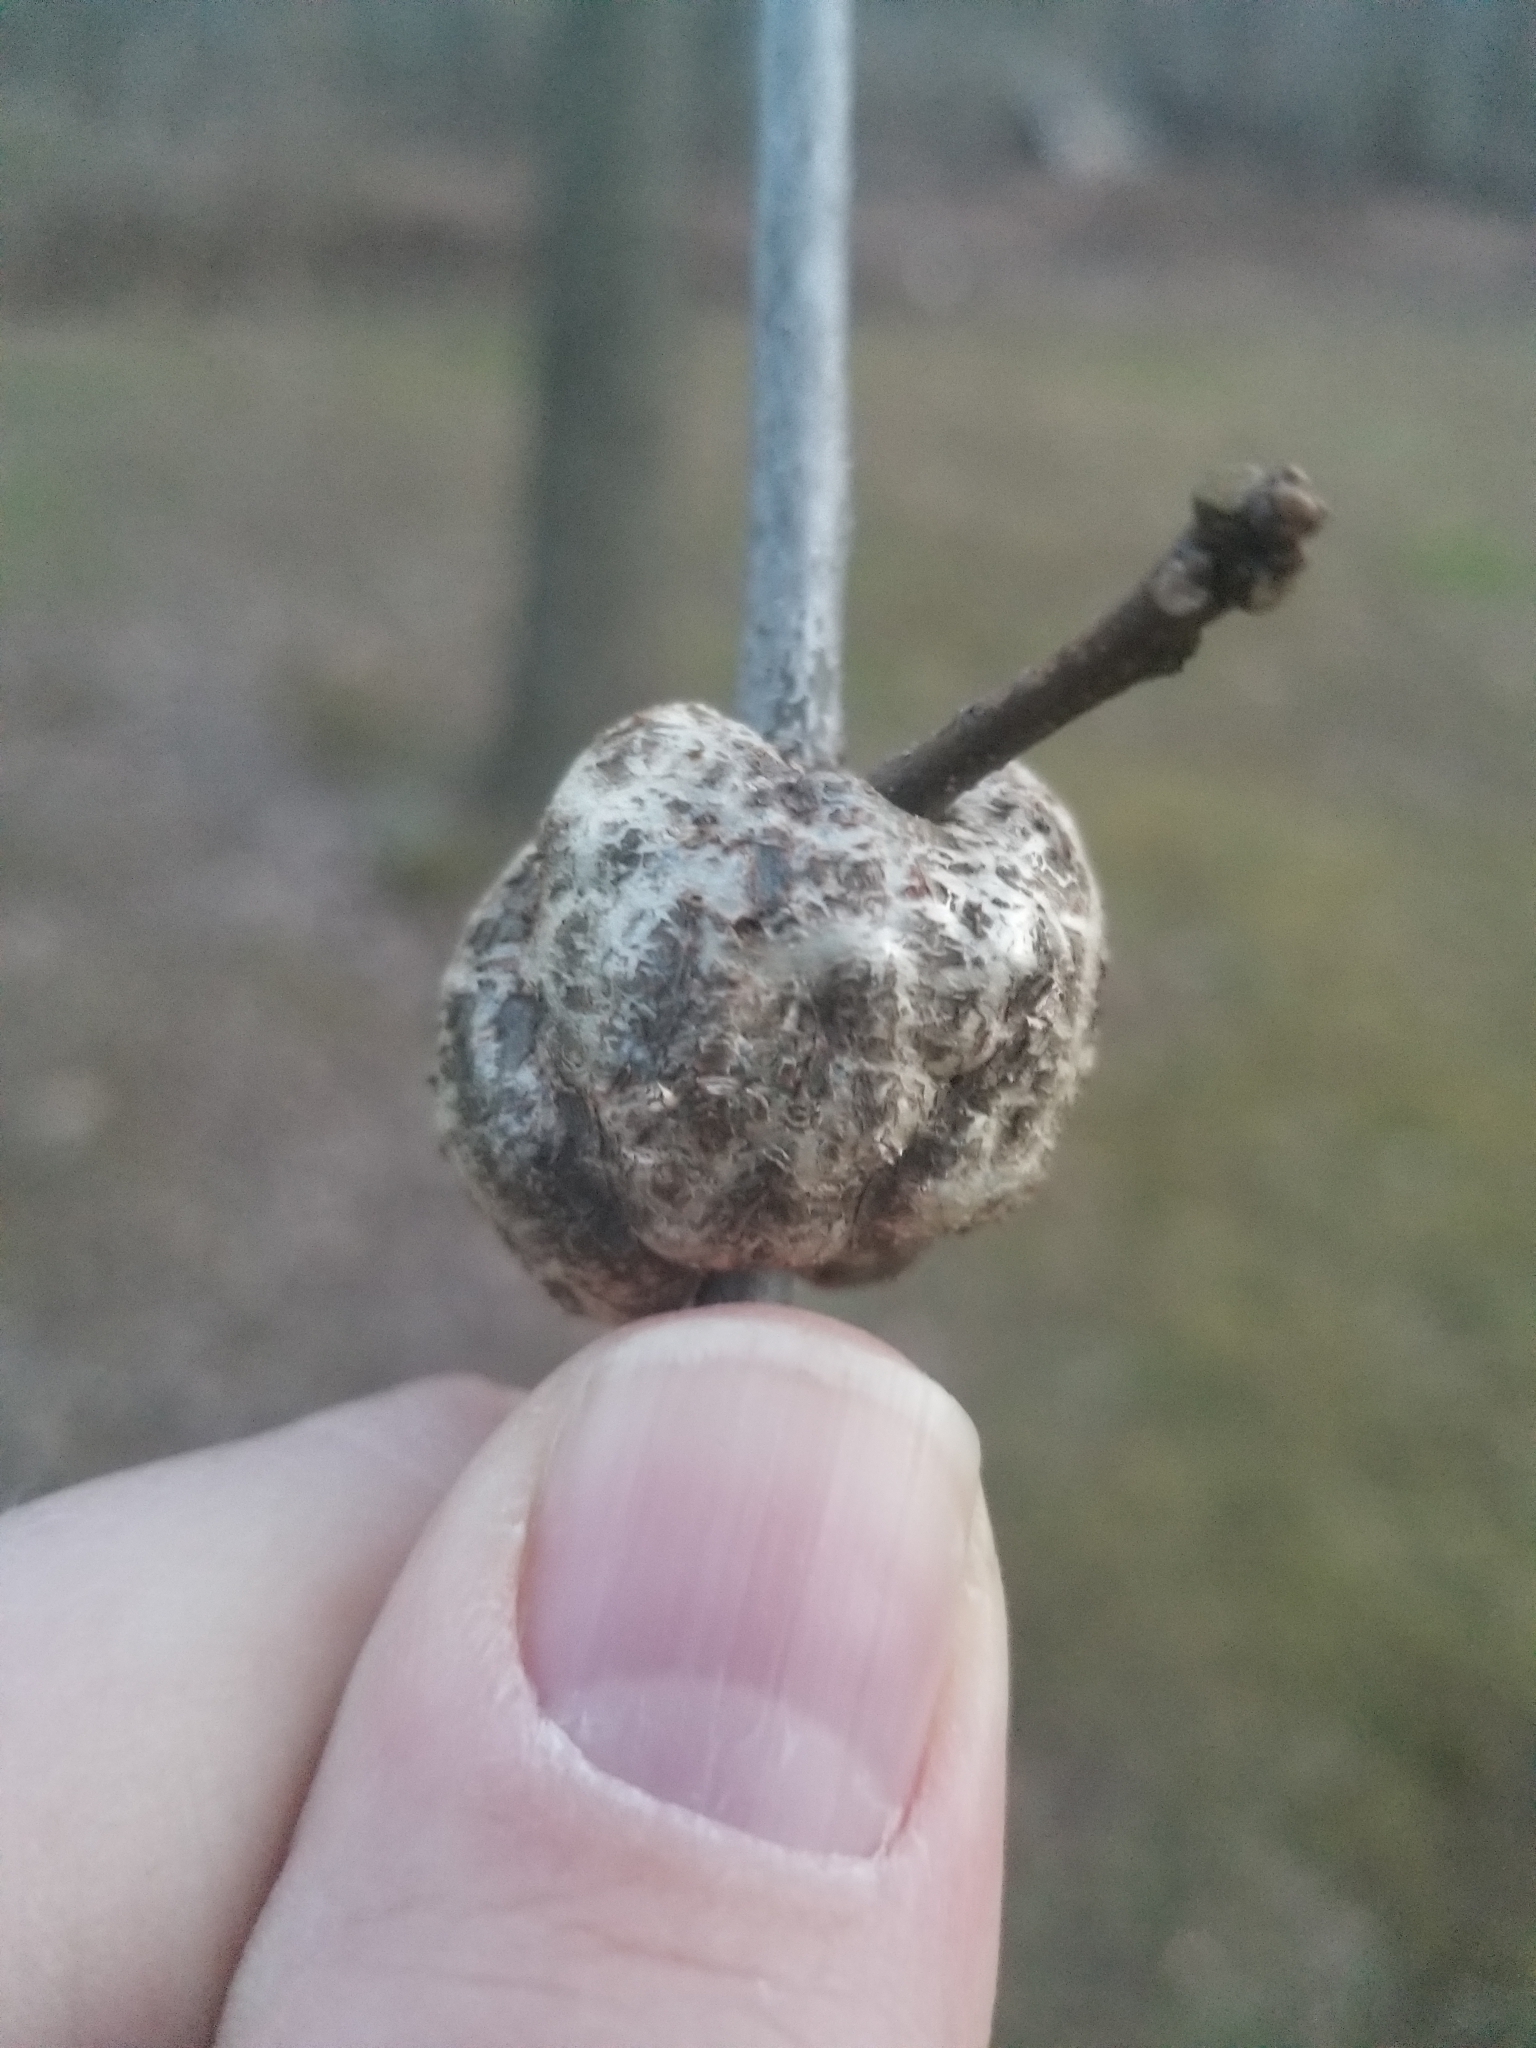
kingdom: Animalia
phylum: Arthropoda
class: Insecta
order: Hymenoptera
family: Cynipidae
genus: Callirhytis
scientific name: Callirhytis
